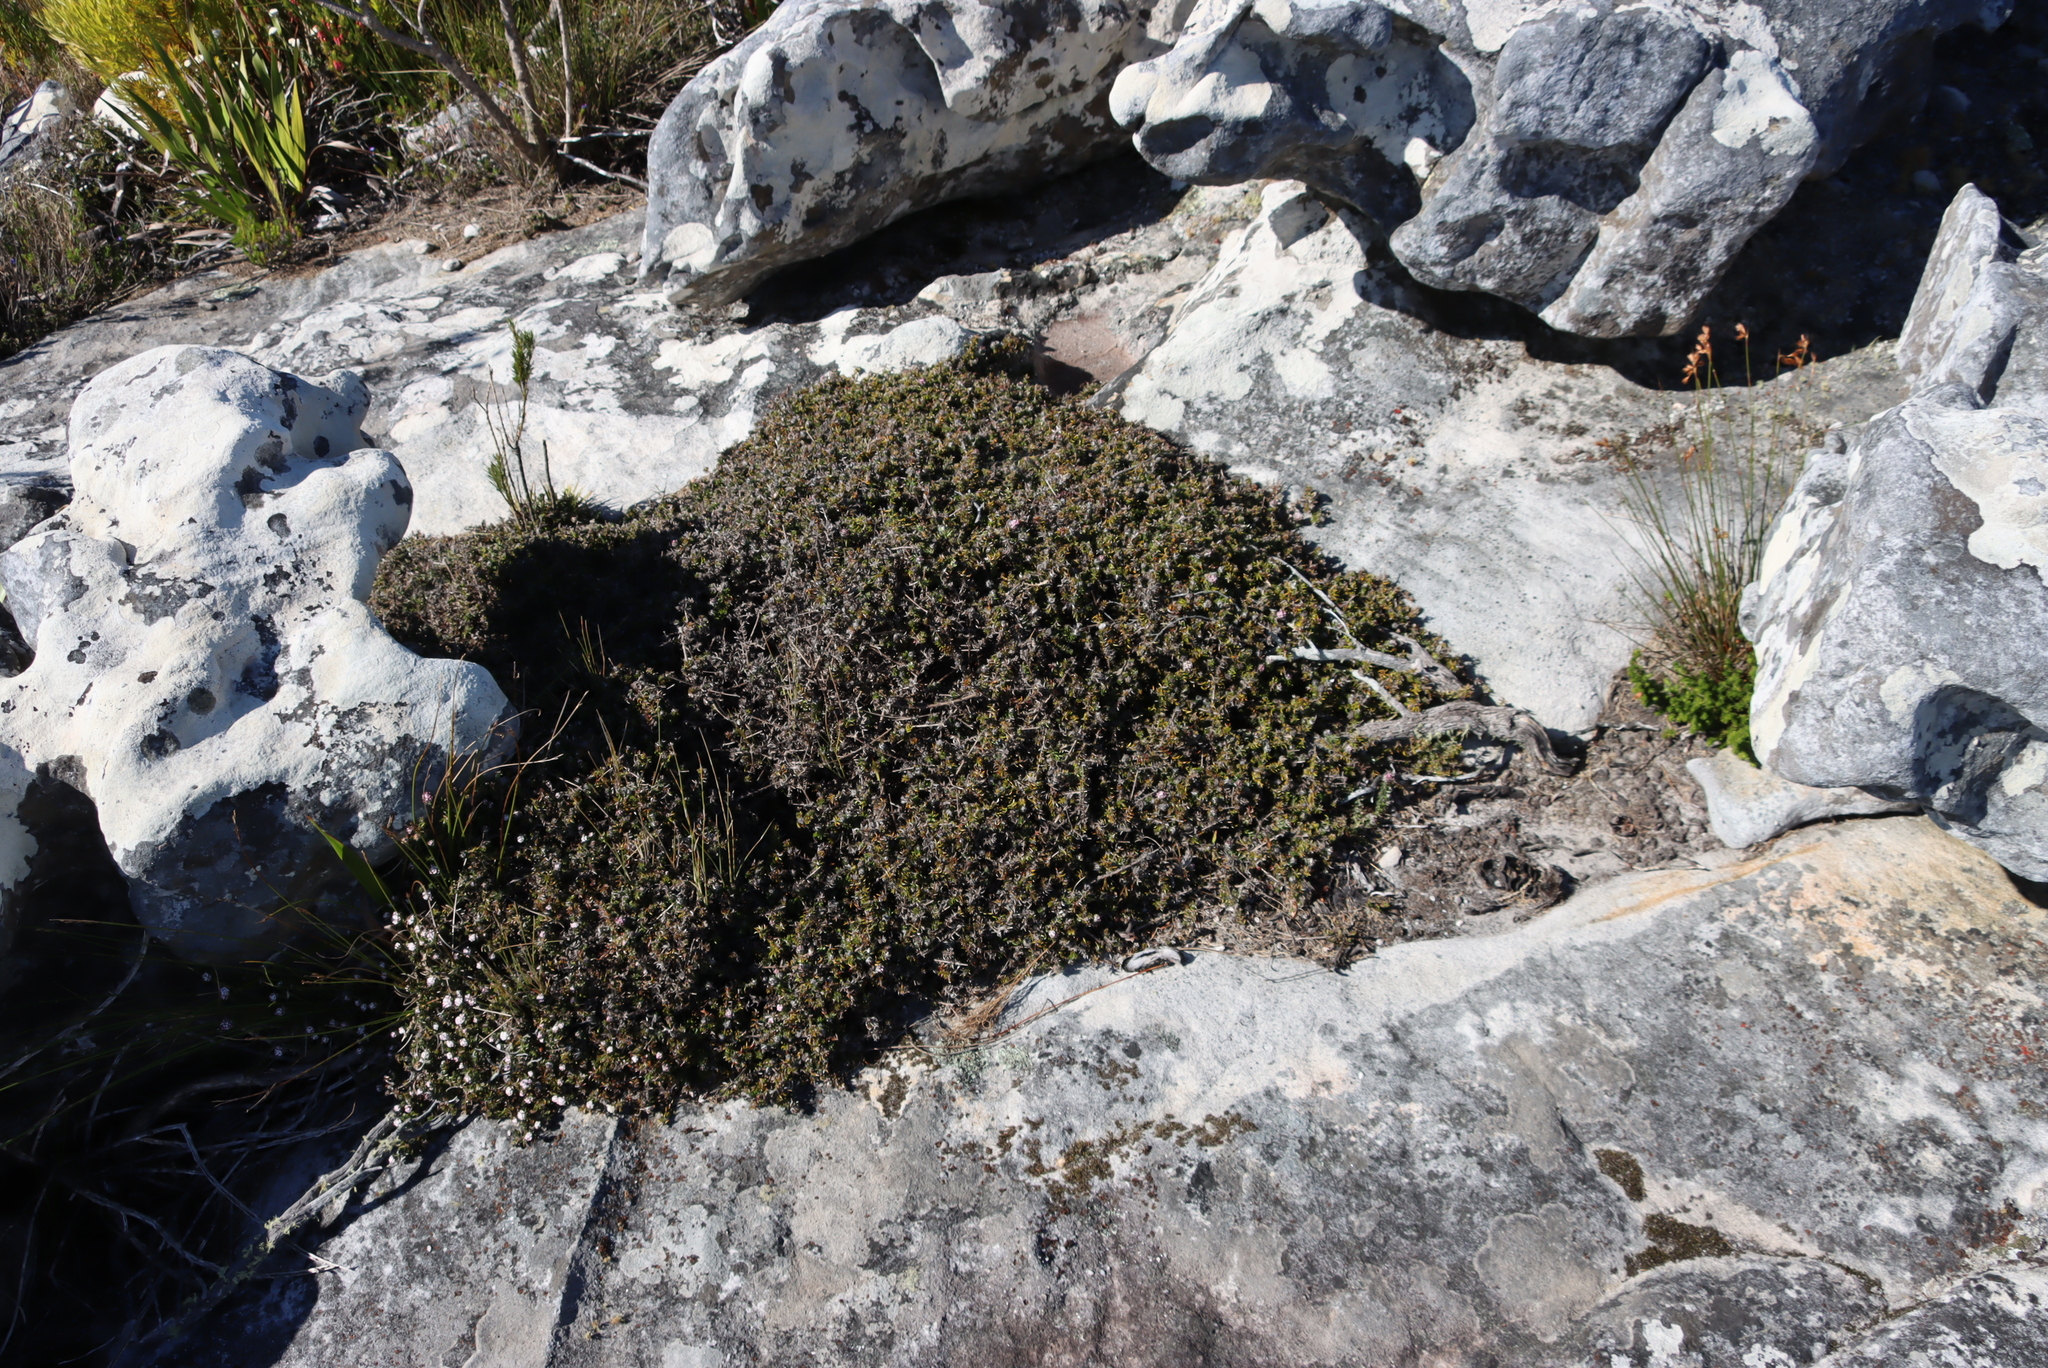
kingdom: Plantae
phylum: Tracheophyta
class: Magnoliopsida
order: Asterales
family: Asteraceae
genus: Metalasia
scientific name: Metalasia divergens
